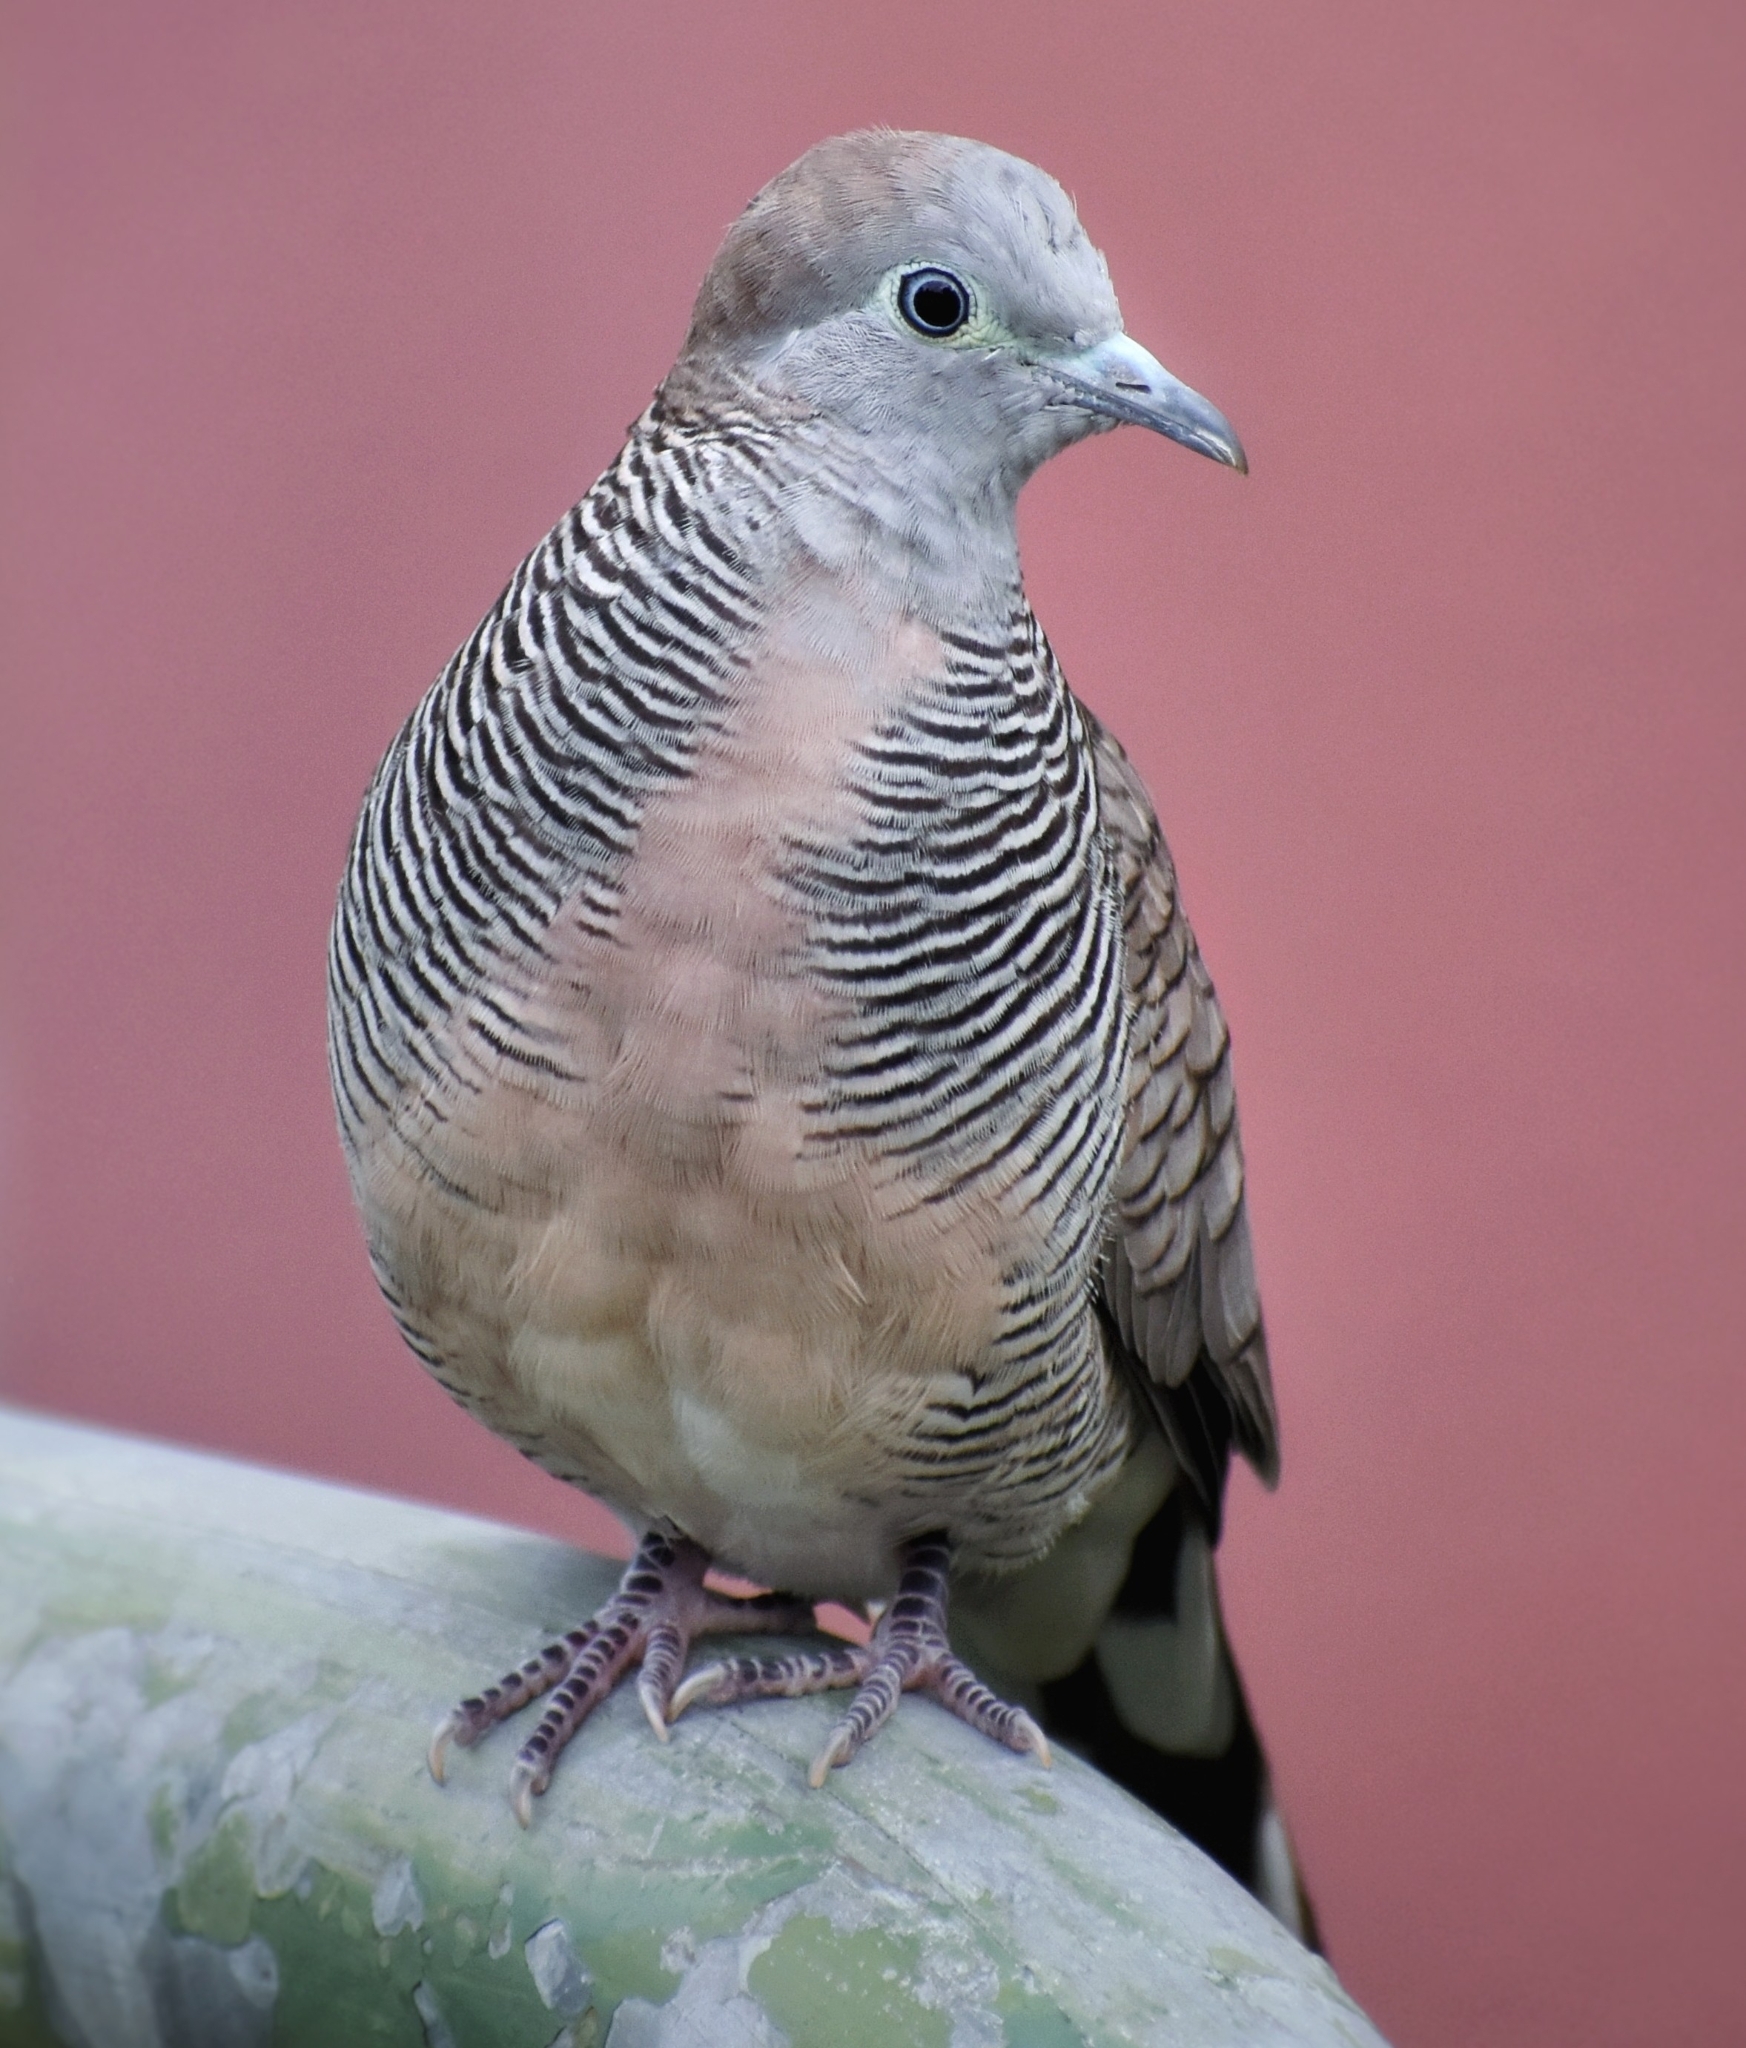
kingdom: Animalia
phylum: Chordata
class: Aves
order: Columbiformes
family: Columbidae
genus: Geopelia
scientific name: Geopelia striata
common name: Zebra dove
